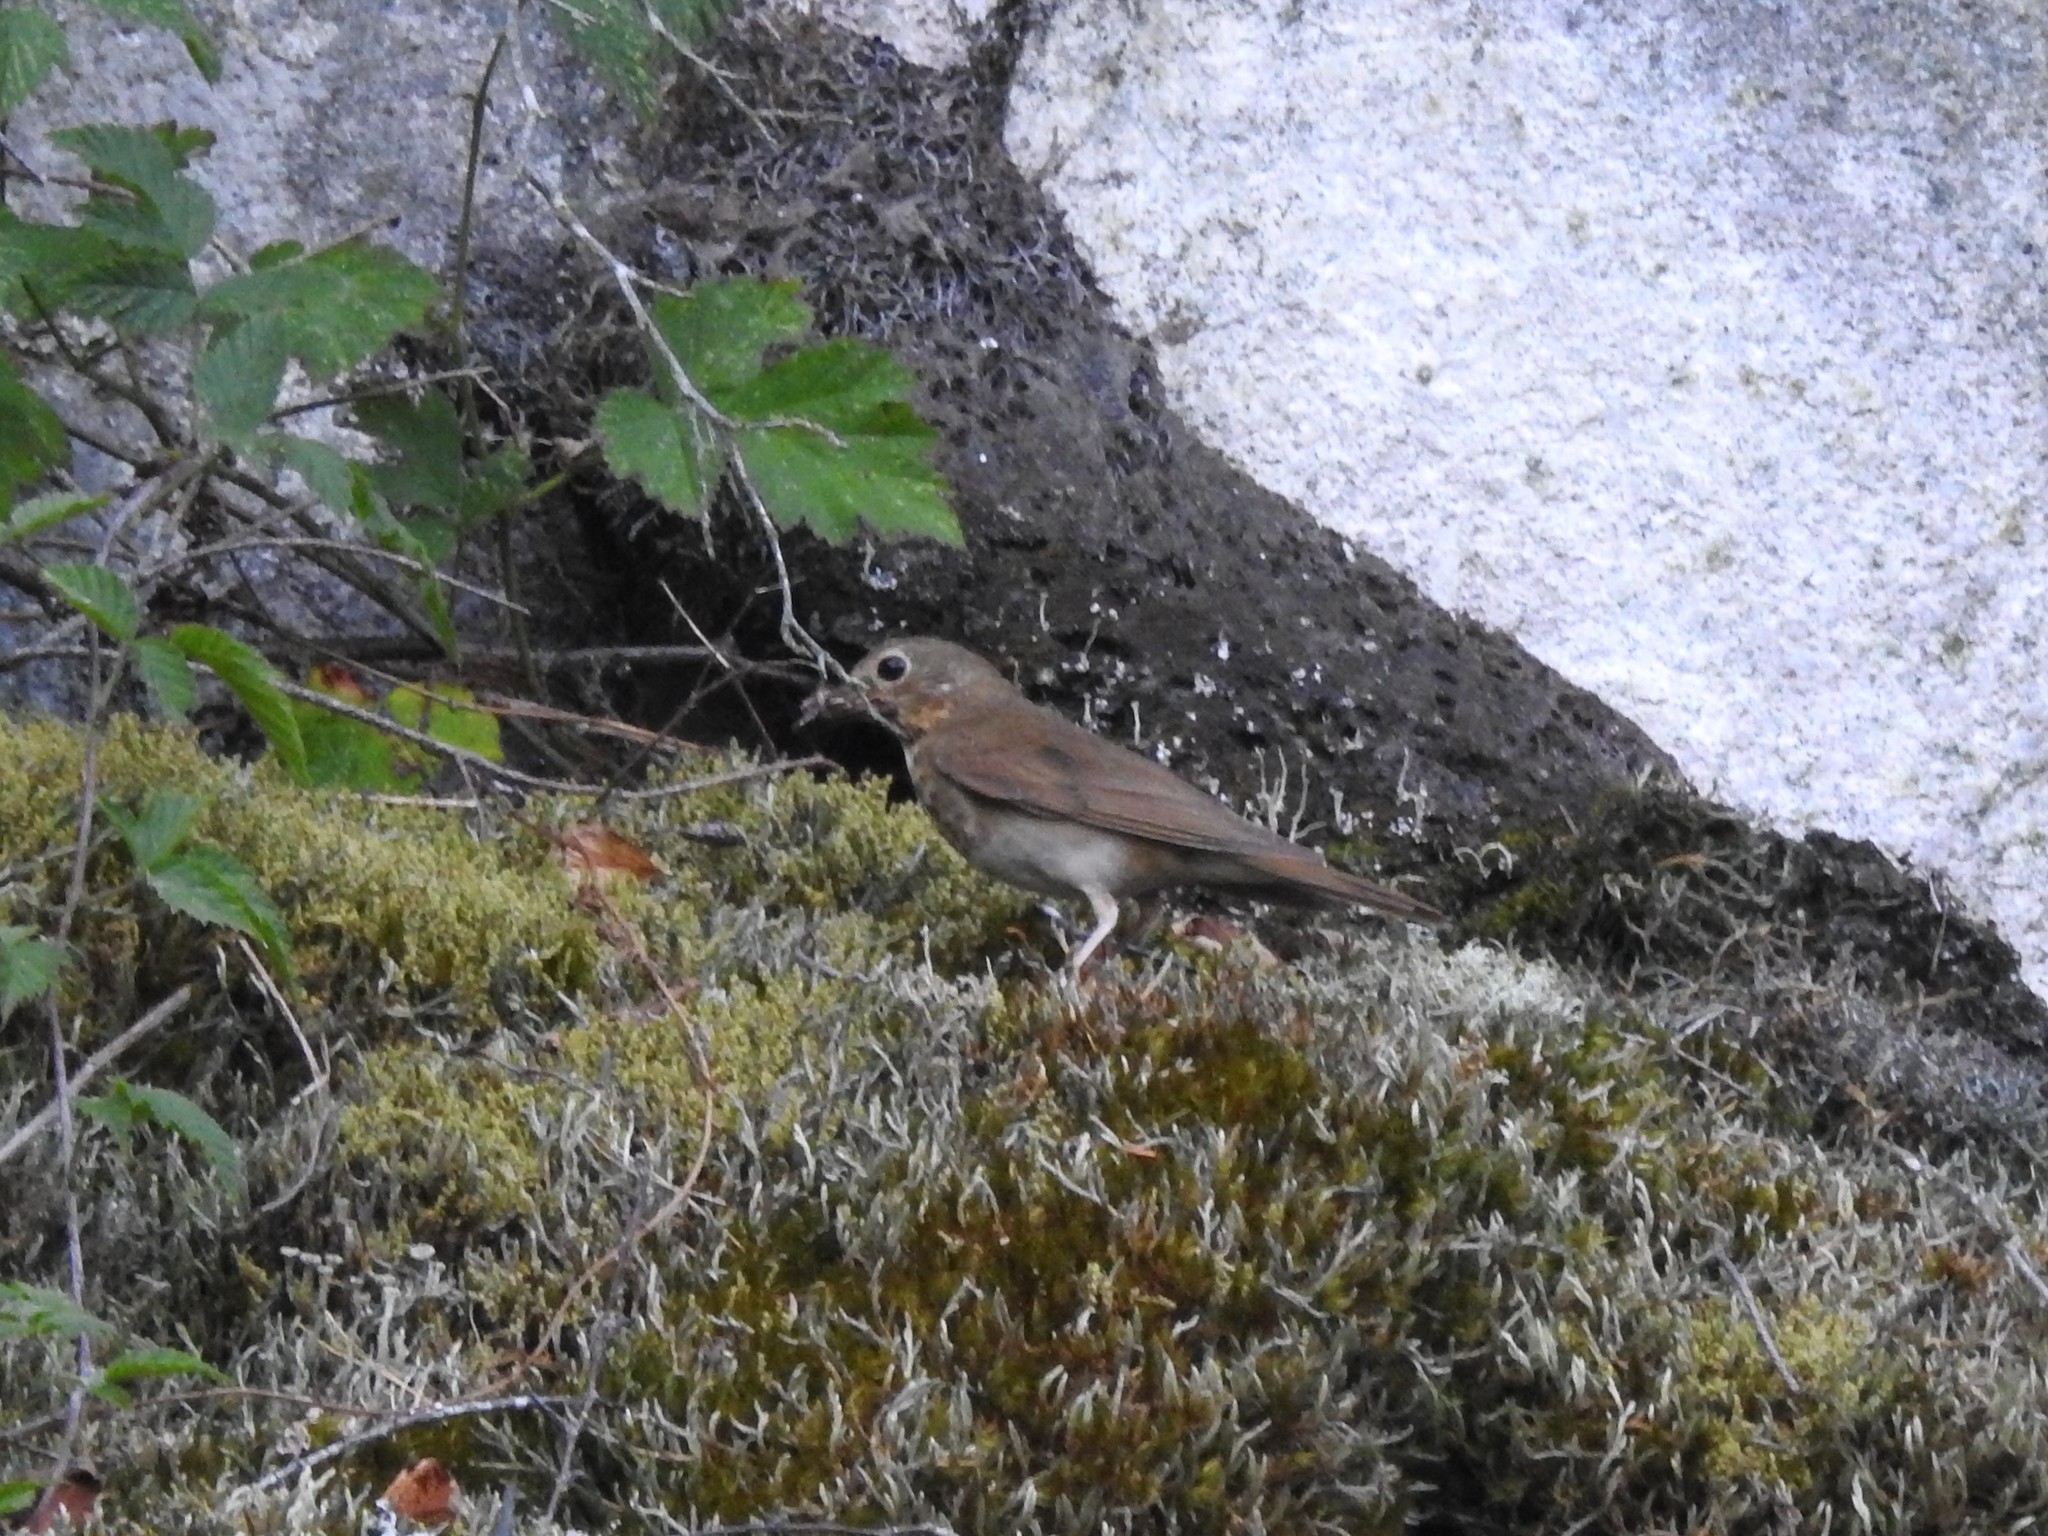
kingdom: Animalia
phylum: Chordata
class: Aves
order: Passeriformes
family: Turdidae
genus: Catharus
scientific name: Catharus ustulatus
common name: Swainson's thrush
